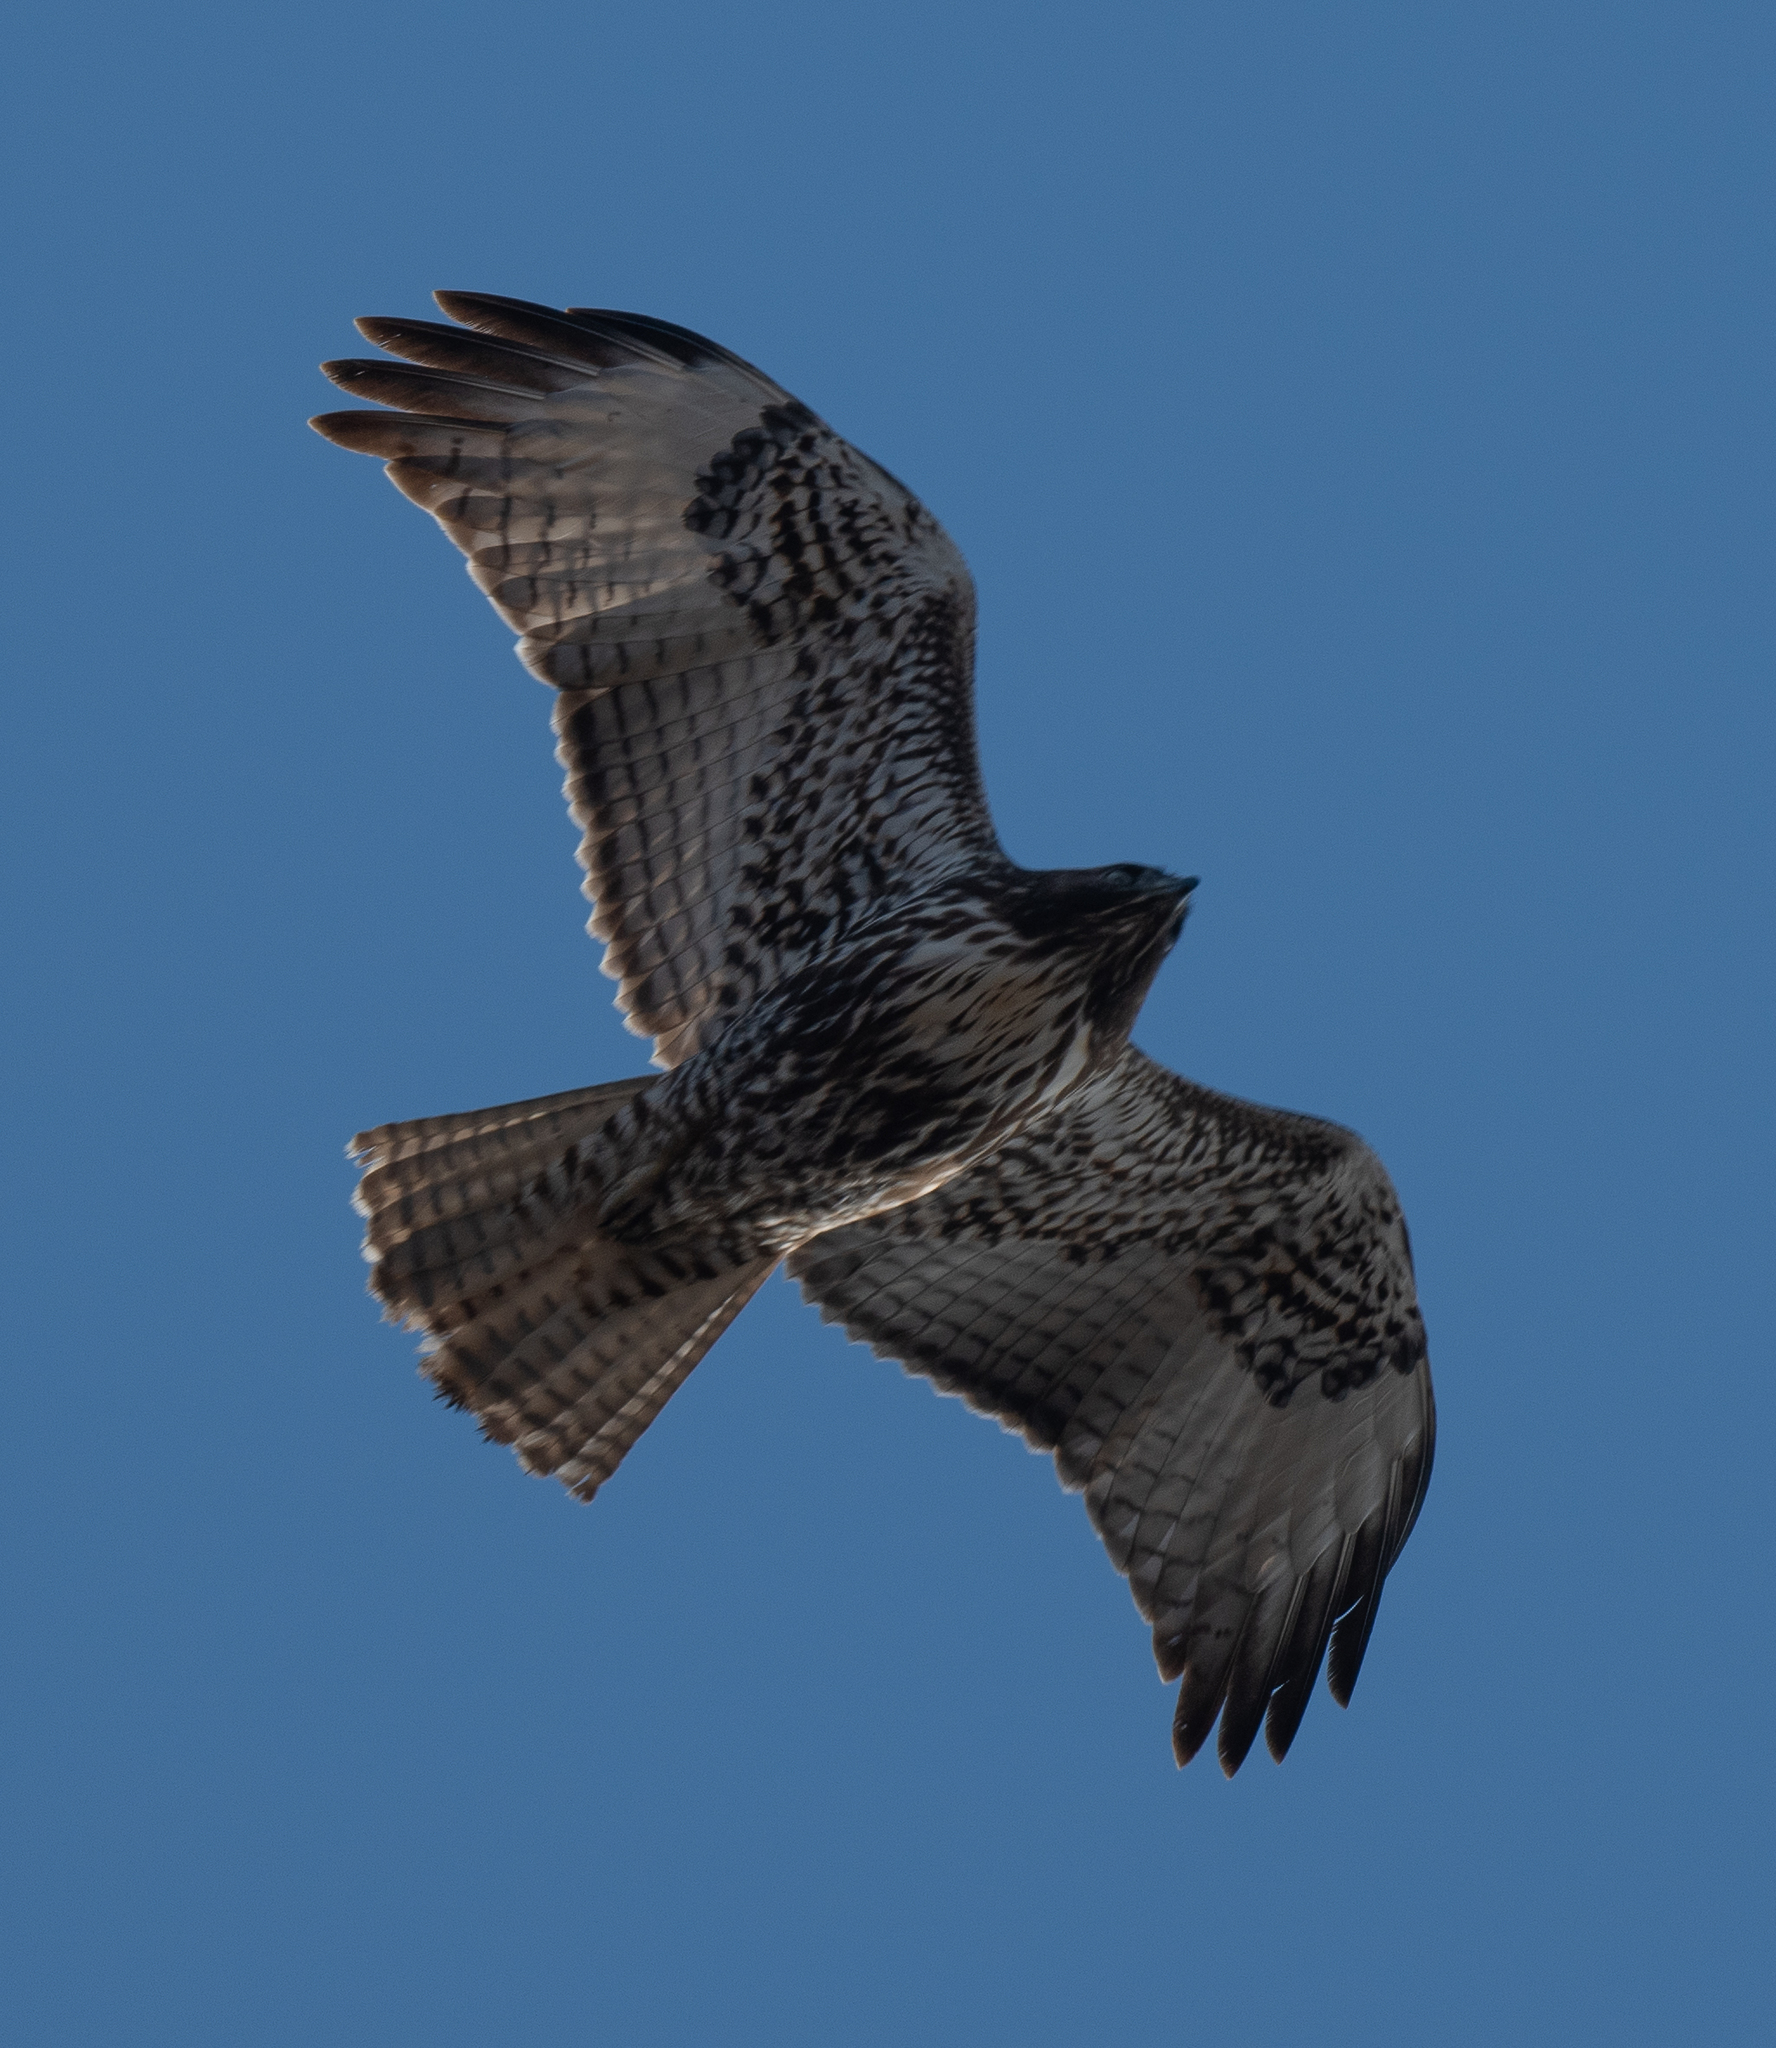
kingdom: Animalia
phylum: Chordata
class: Aves
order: Accipitriformes
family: Accipitridae
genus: Buteo
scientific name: Buteo jamaicensis
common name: Red-tailed hawk
